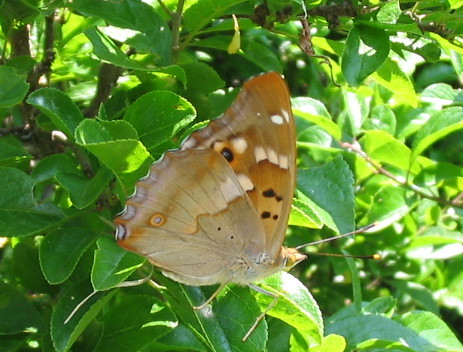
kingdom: Animalia
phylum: Arthropoda
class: Insecta
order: Lepidoptera
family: Nymphalidae
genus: Apatura
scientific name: Apatura ilia
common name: Lesser purple emperor
